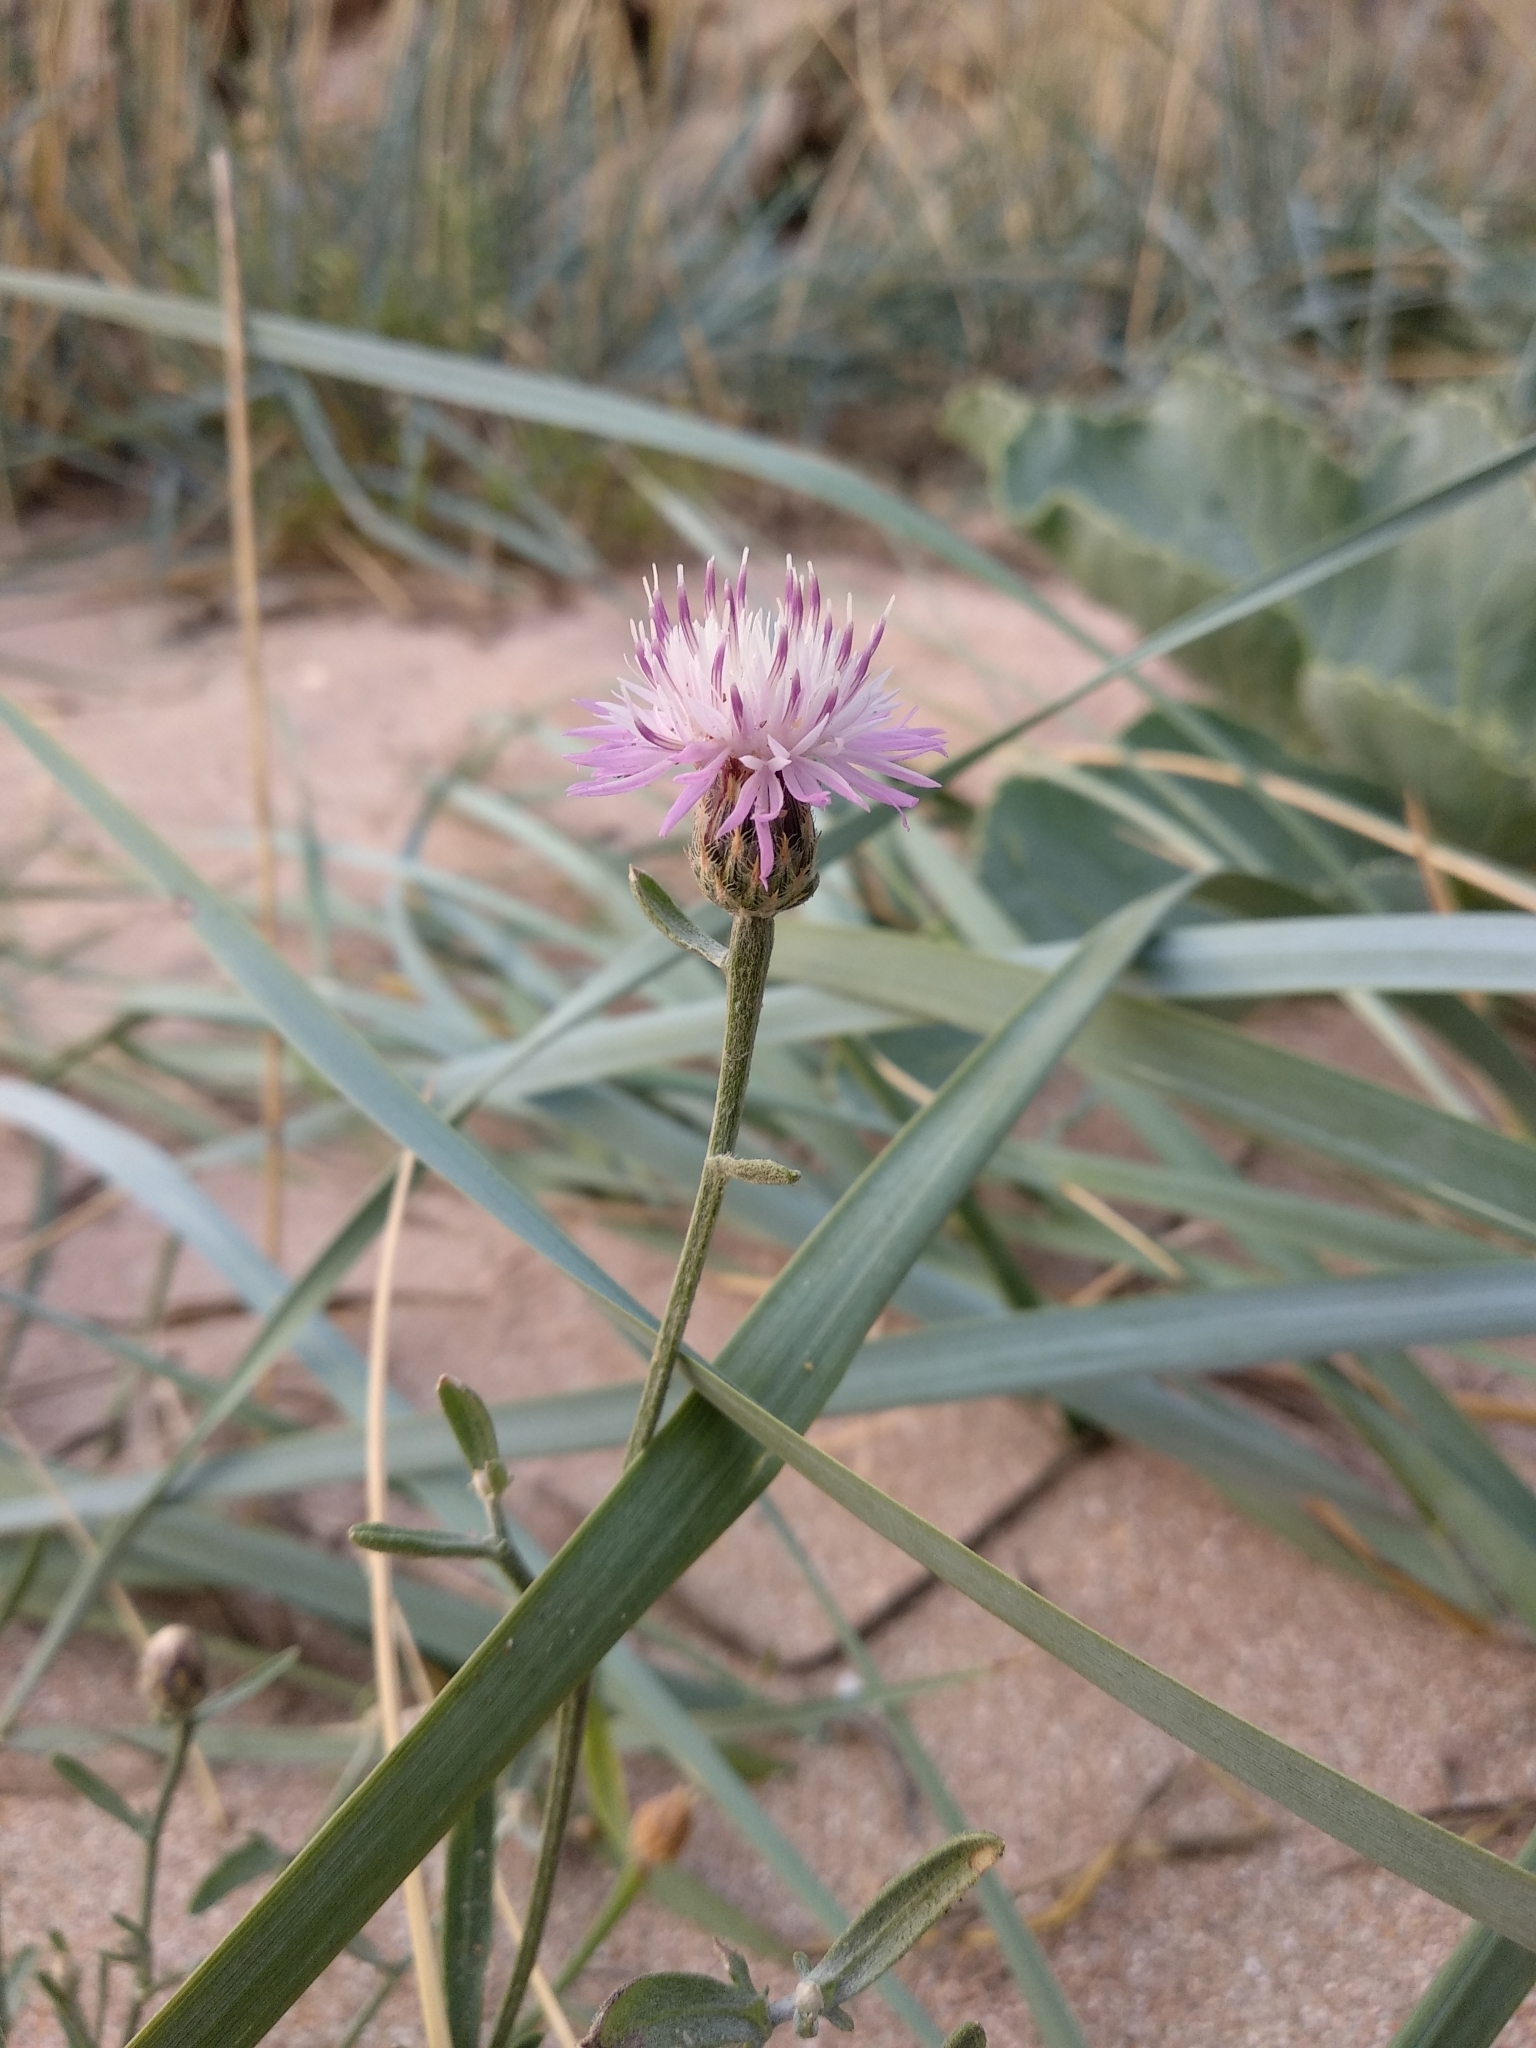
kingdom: Plantae
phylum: Tracheophyta
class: Magnoliopsida
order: Asterales
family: Asteraceae
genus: Centaurea
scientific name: Centaurea odessana
